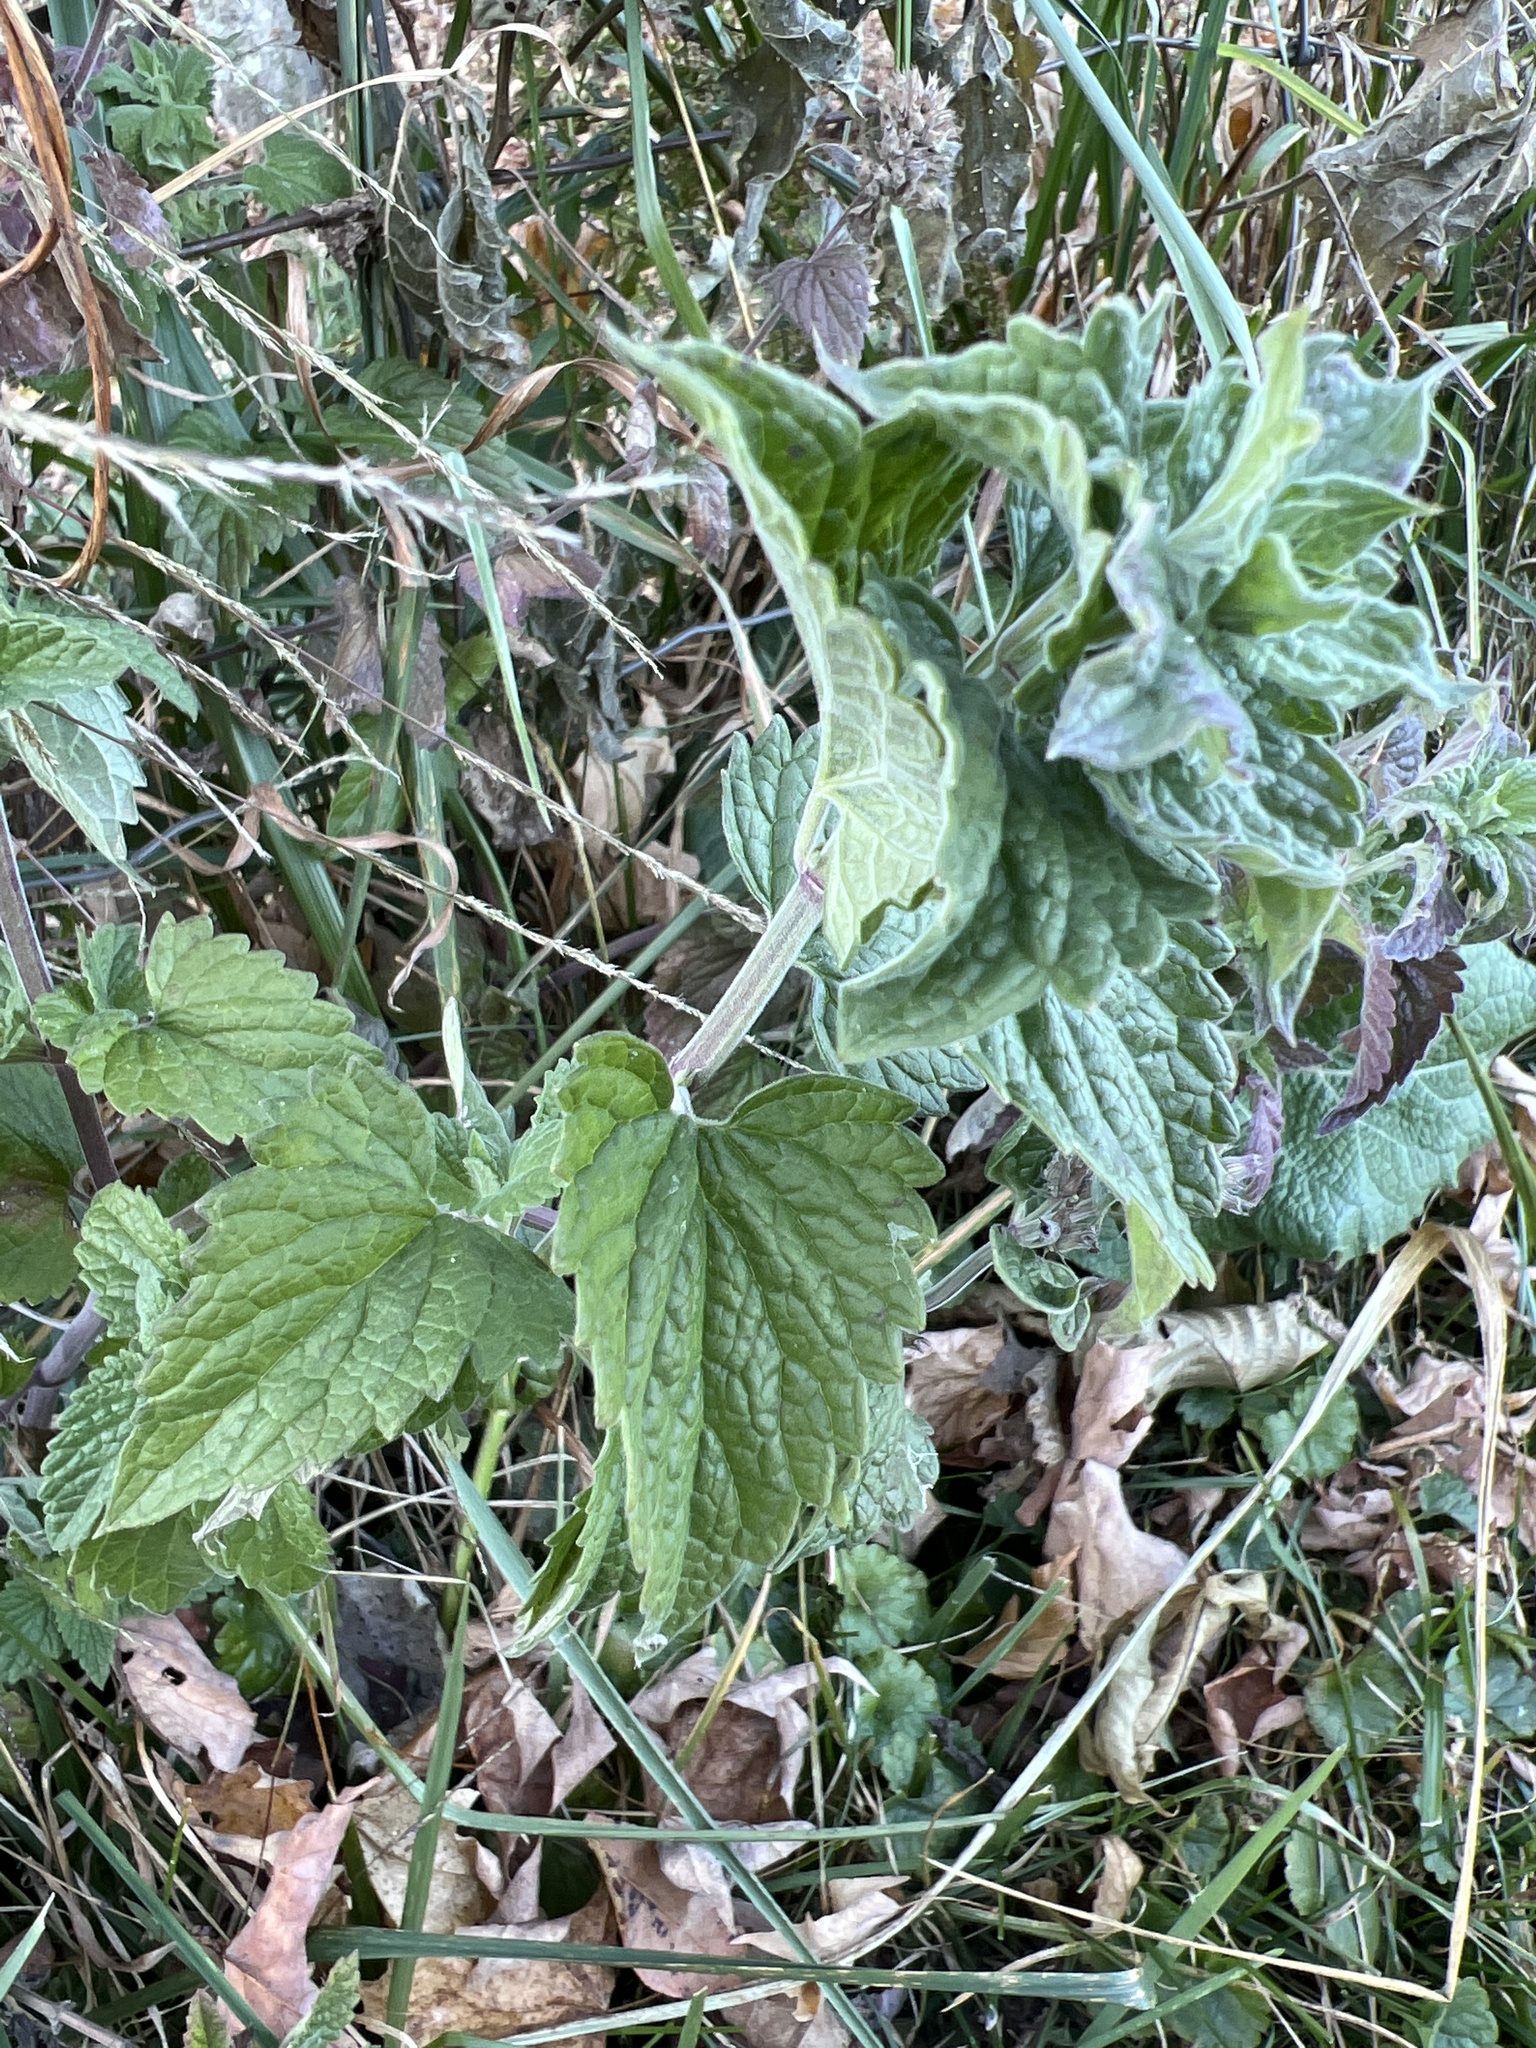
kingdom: Plantae
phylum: Tracheophyta
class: Magnoliopsida
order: Lamiales
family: Lamiaceae
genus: Nepeta
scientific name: Nepeta cataria
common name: Catnip
